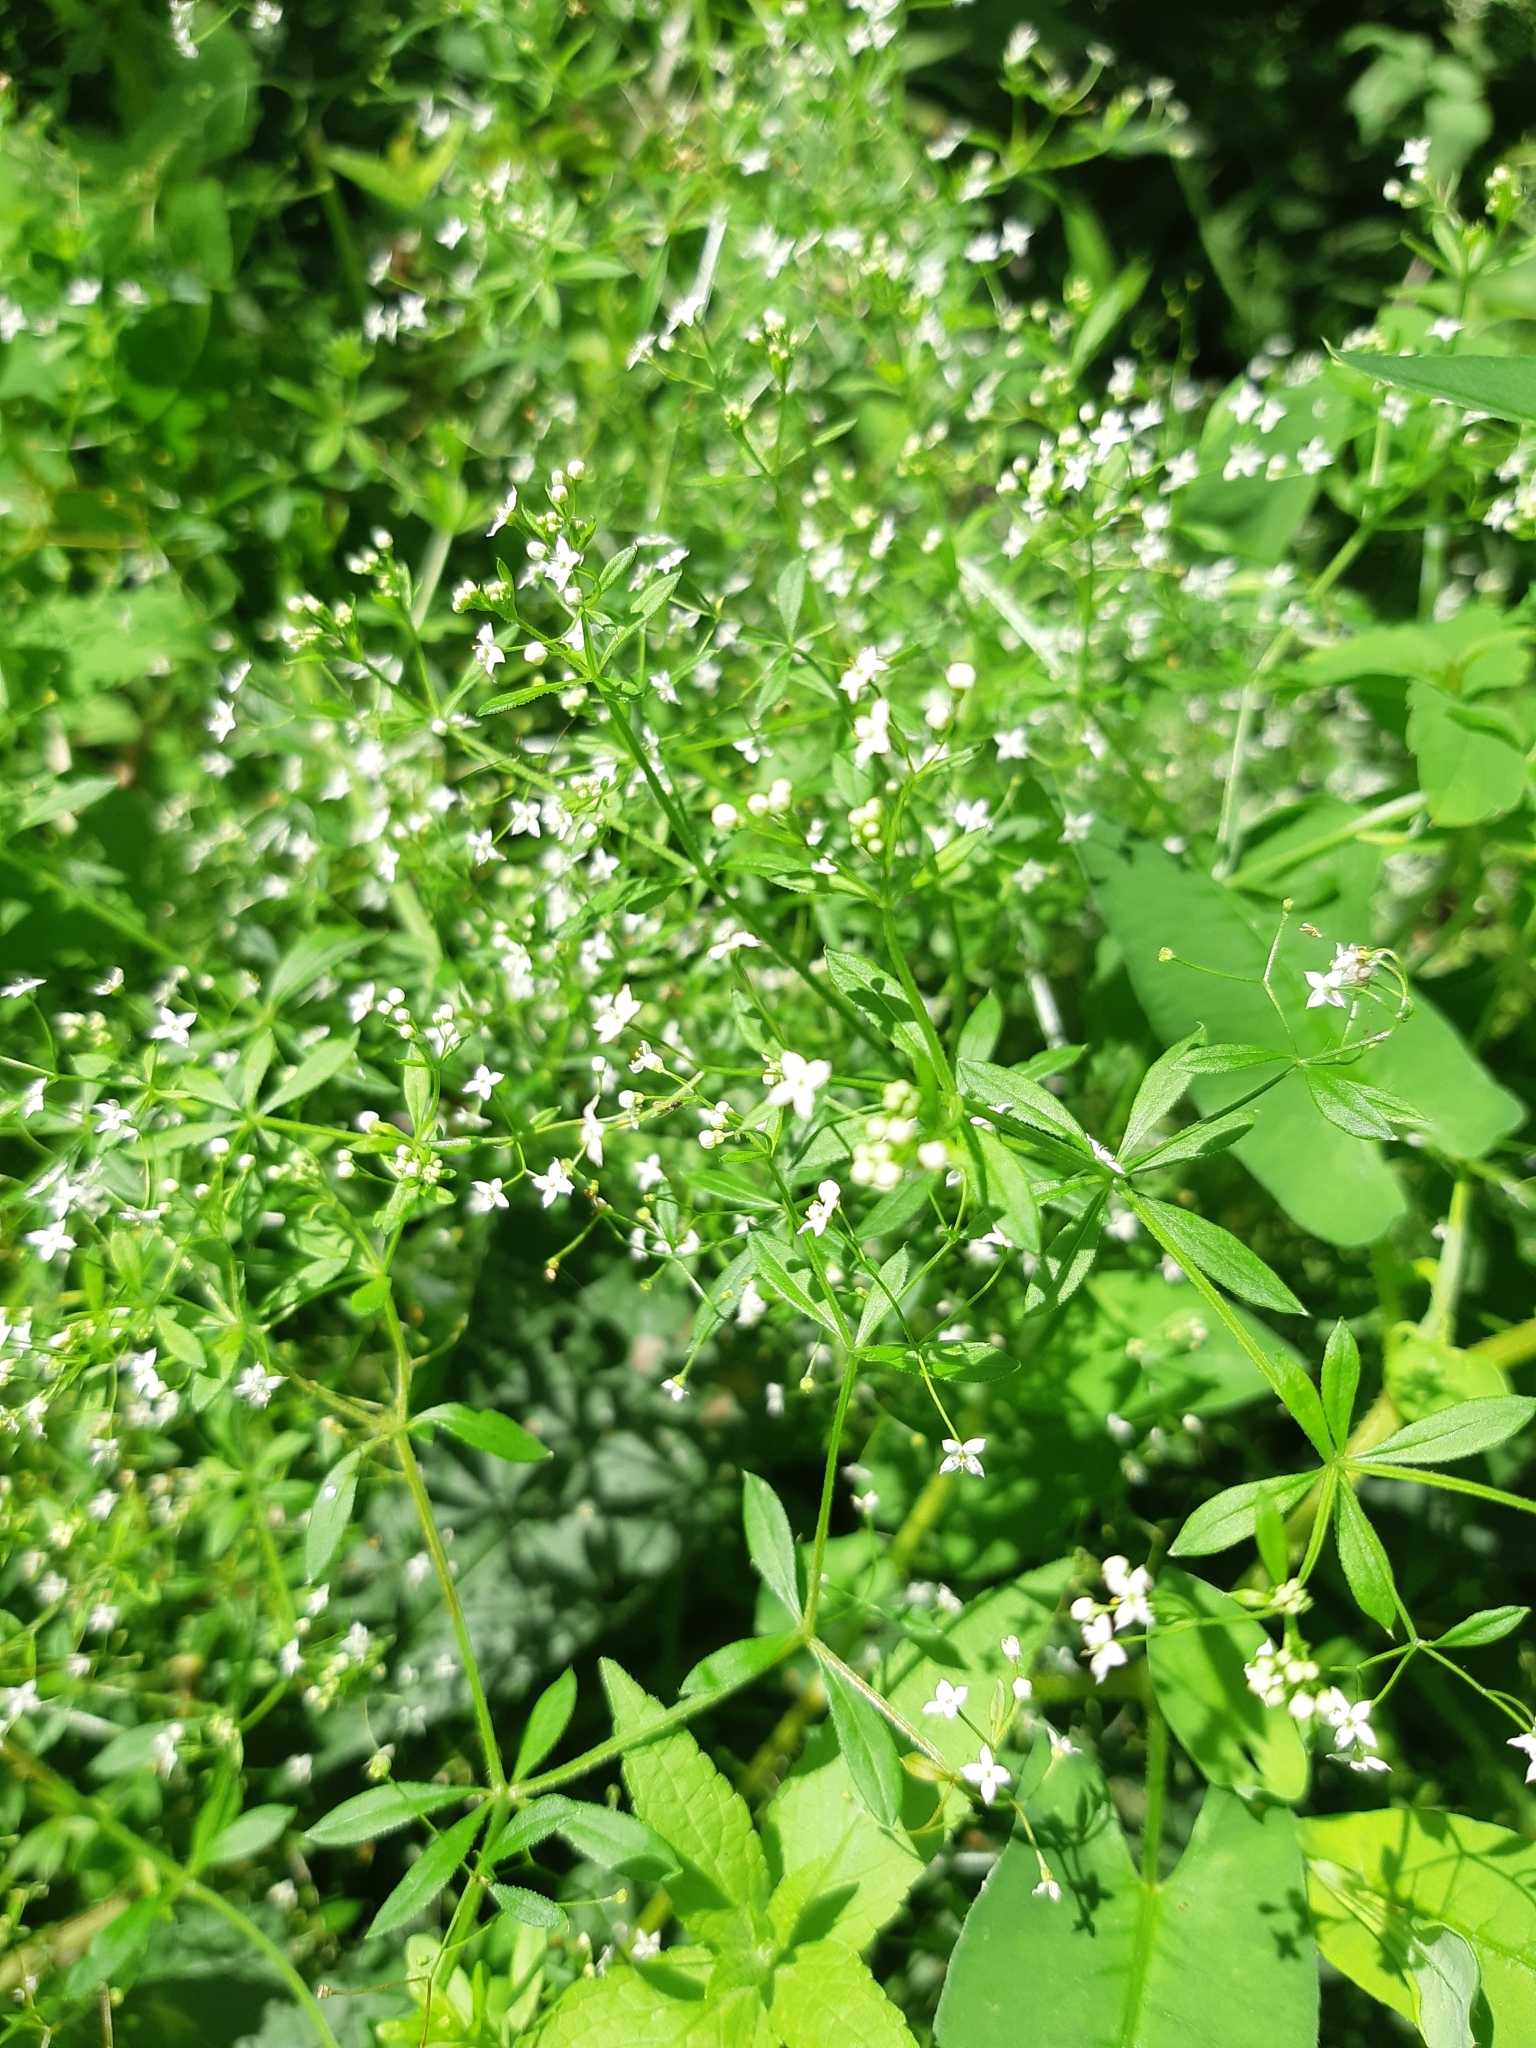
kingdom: Plantae
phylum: Tracheophyta
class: Magnoliopsida
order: Gentianales
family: Rubiaceae
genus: Galium
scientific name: Galium asprellum
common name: Rough bedstraw
